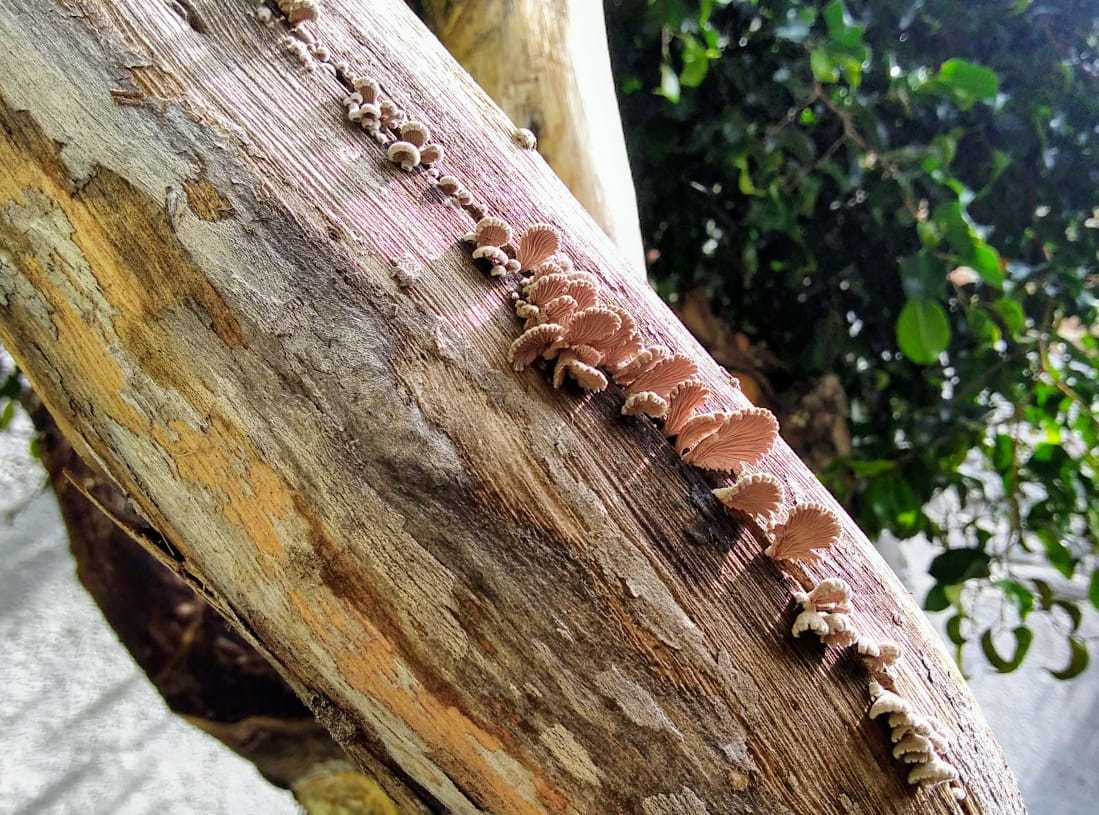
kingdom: Fungi
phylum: Basidiomycota
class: Agaricomycetes
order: Agaricales
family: Schizophyllaceae
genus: Schizophyllum
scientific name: Schizophyllum commune
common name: Common porecrust
